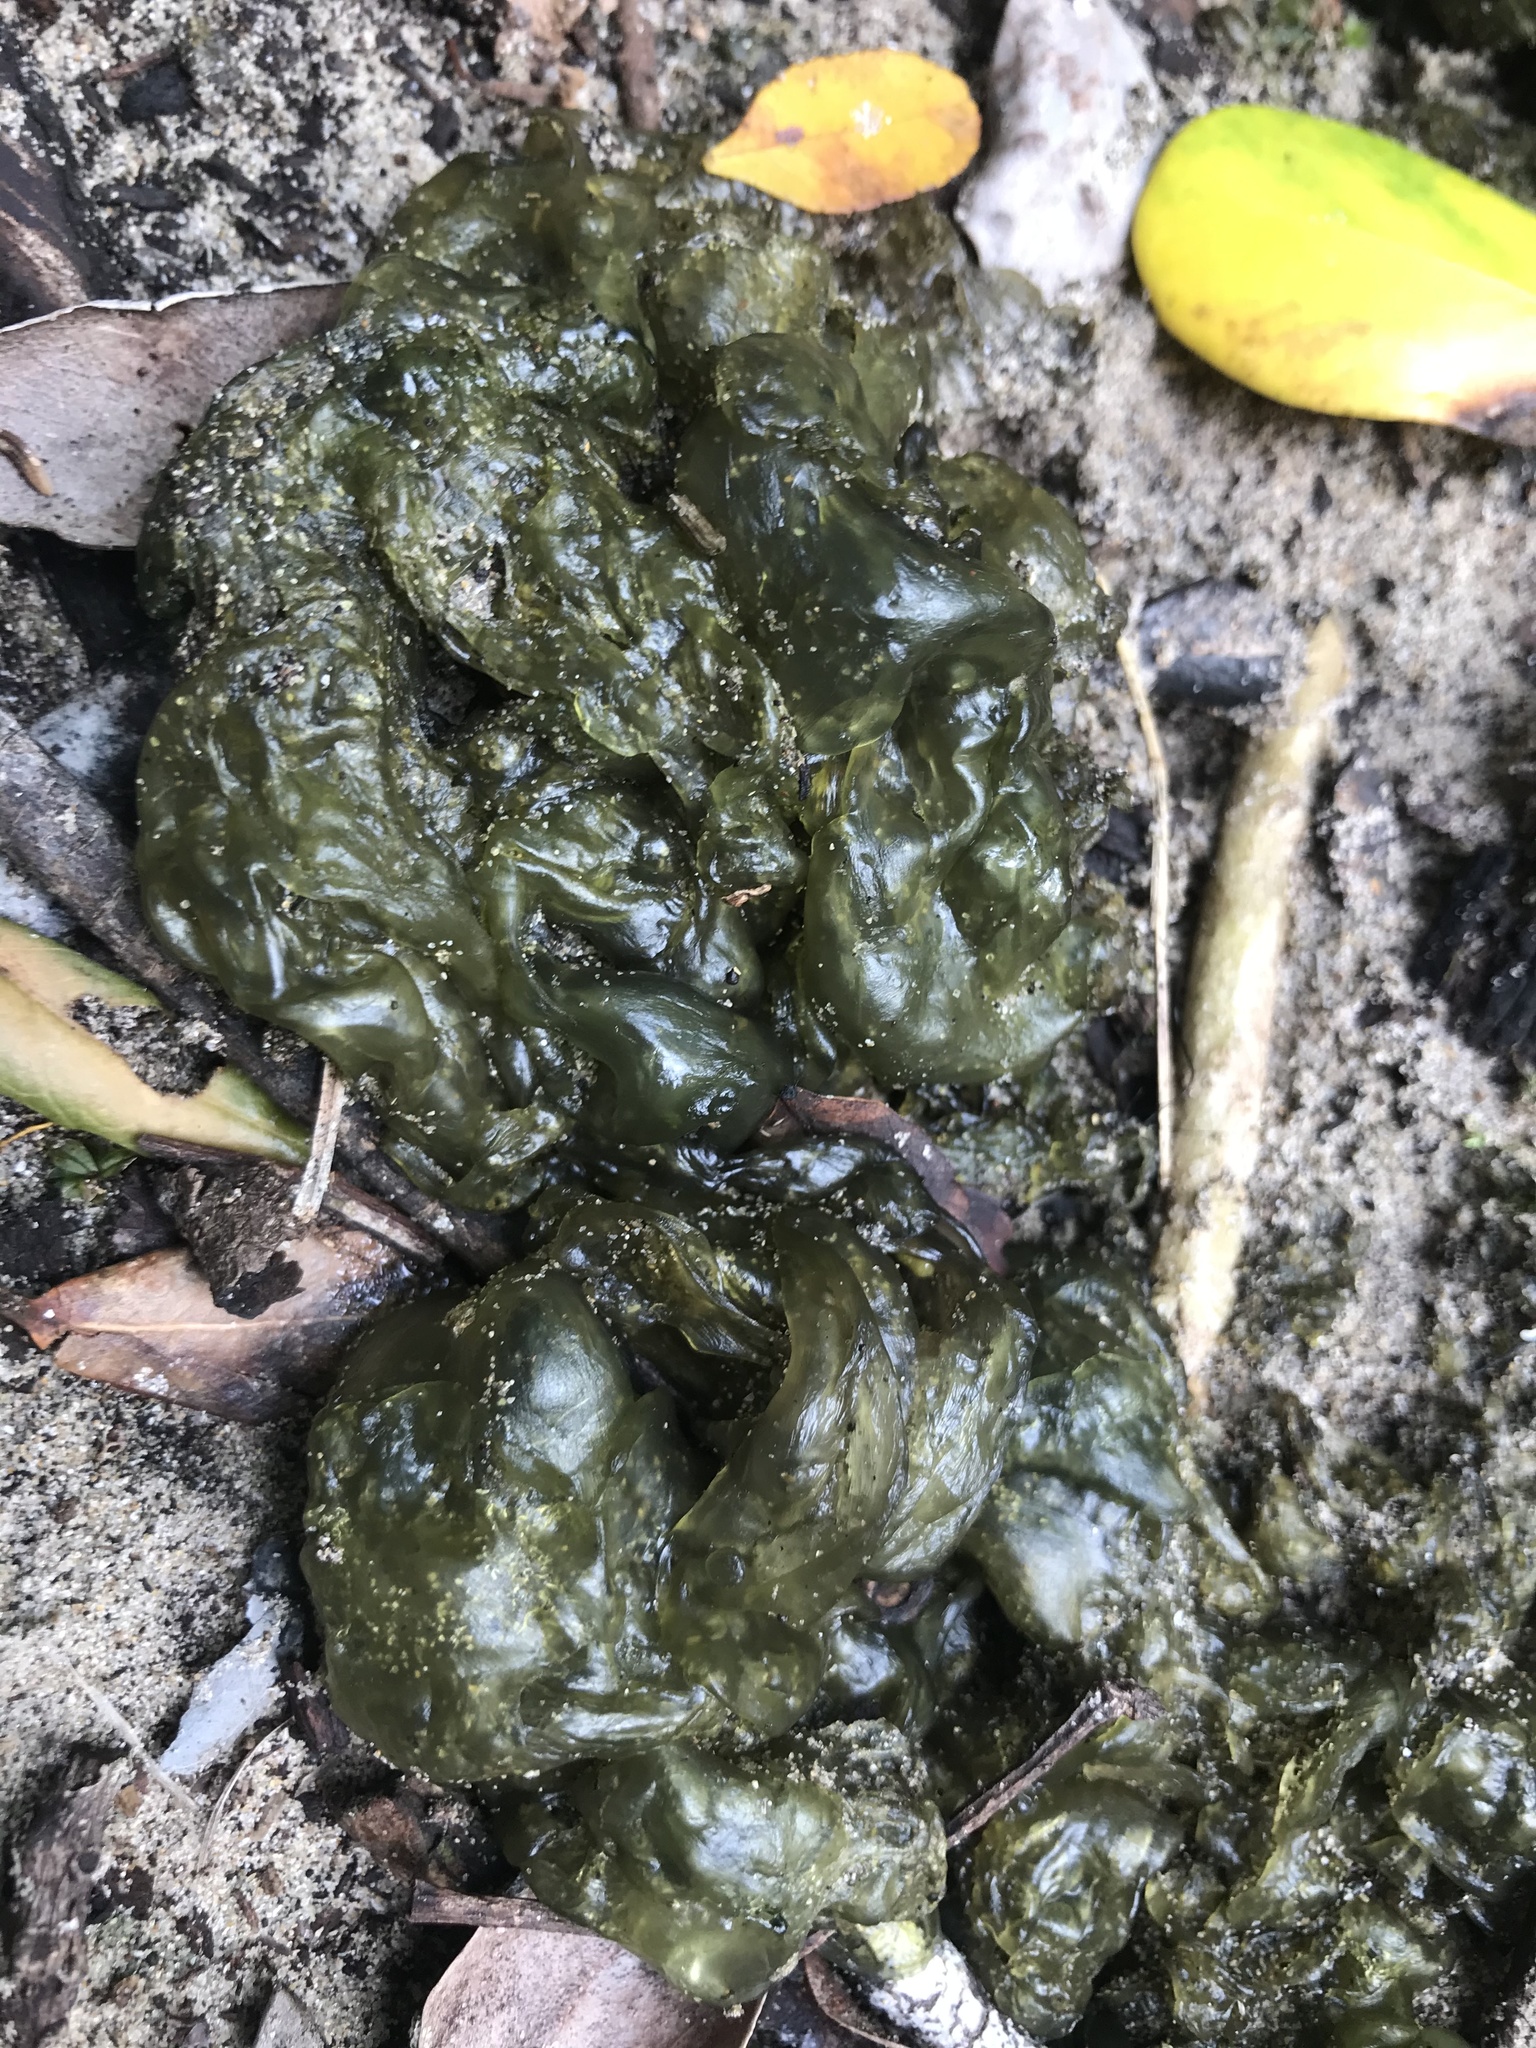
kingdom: Bacteria
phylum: Cyanobacteria
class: Cyanobacteriia
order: Cyanobacteriales
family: Nostocaceae
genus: Nostoc
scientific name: Nostoc commune
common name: Star jelly
